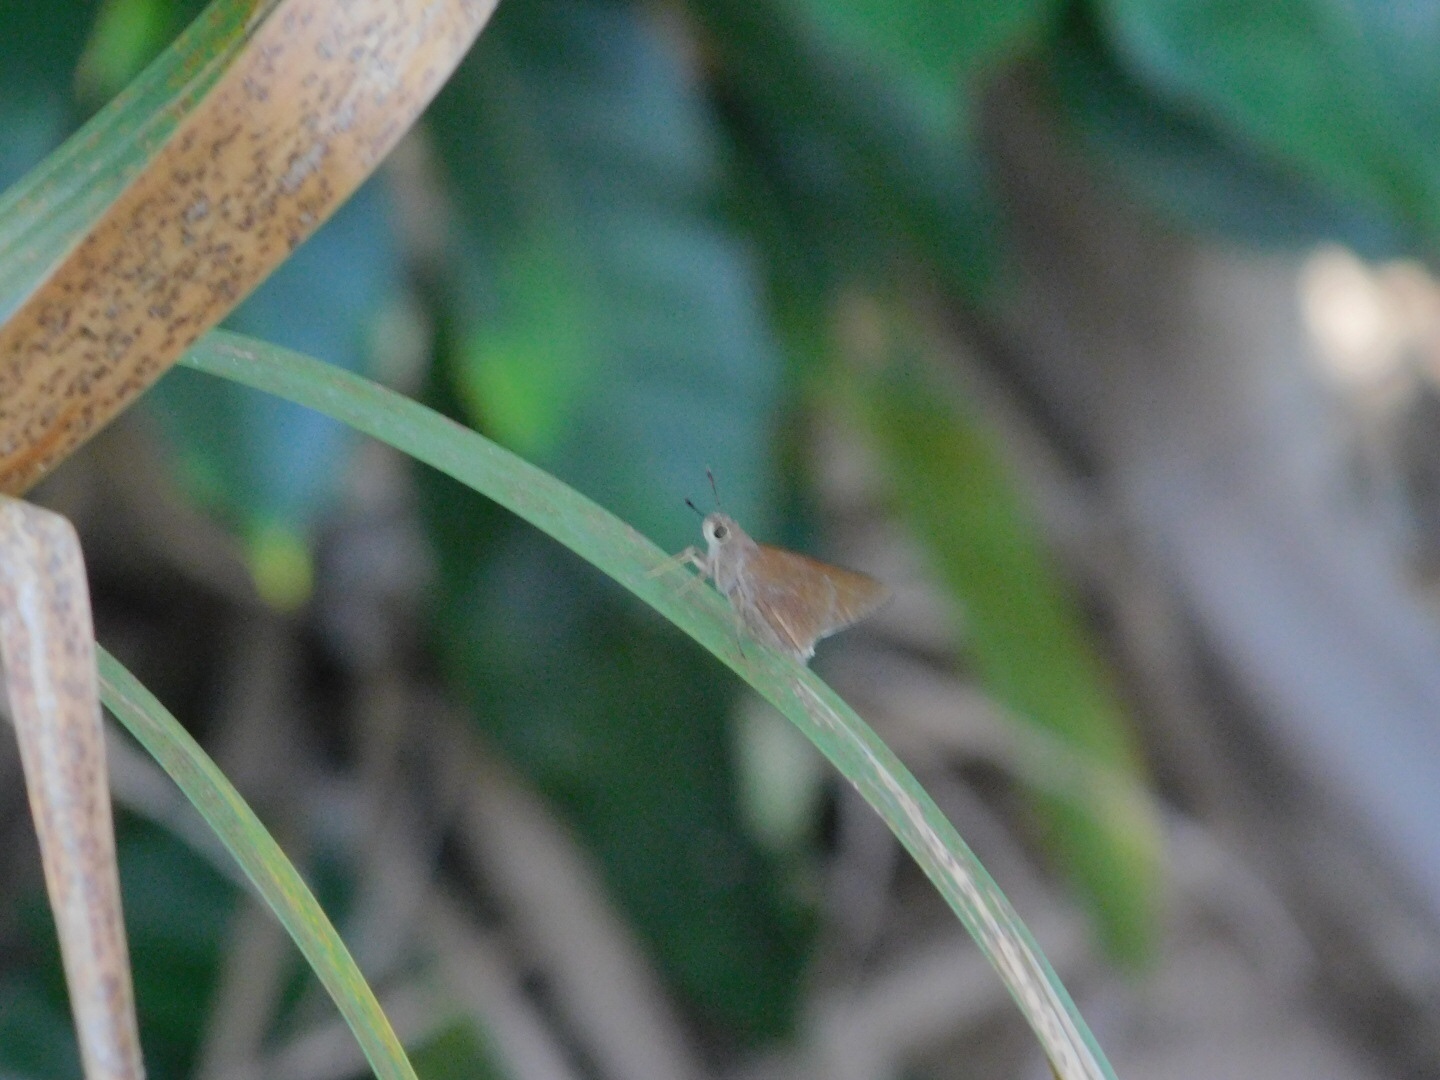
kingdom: Animalia
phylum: Arthropoda
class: Insecta
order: Lepidoptera
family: Hesperiidae
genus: Asbolis
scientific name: Asbolis capucinus
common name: Monk skipper
